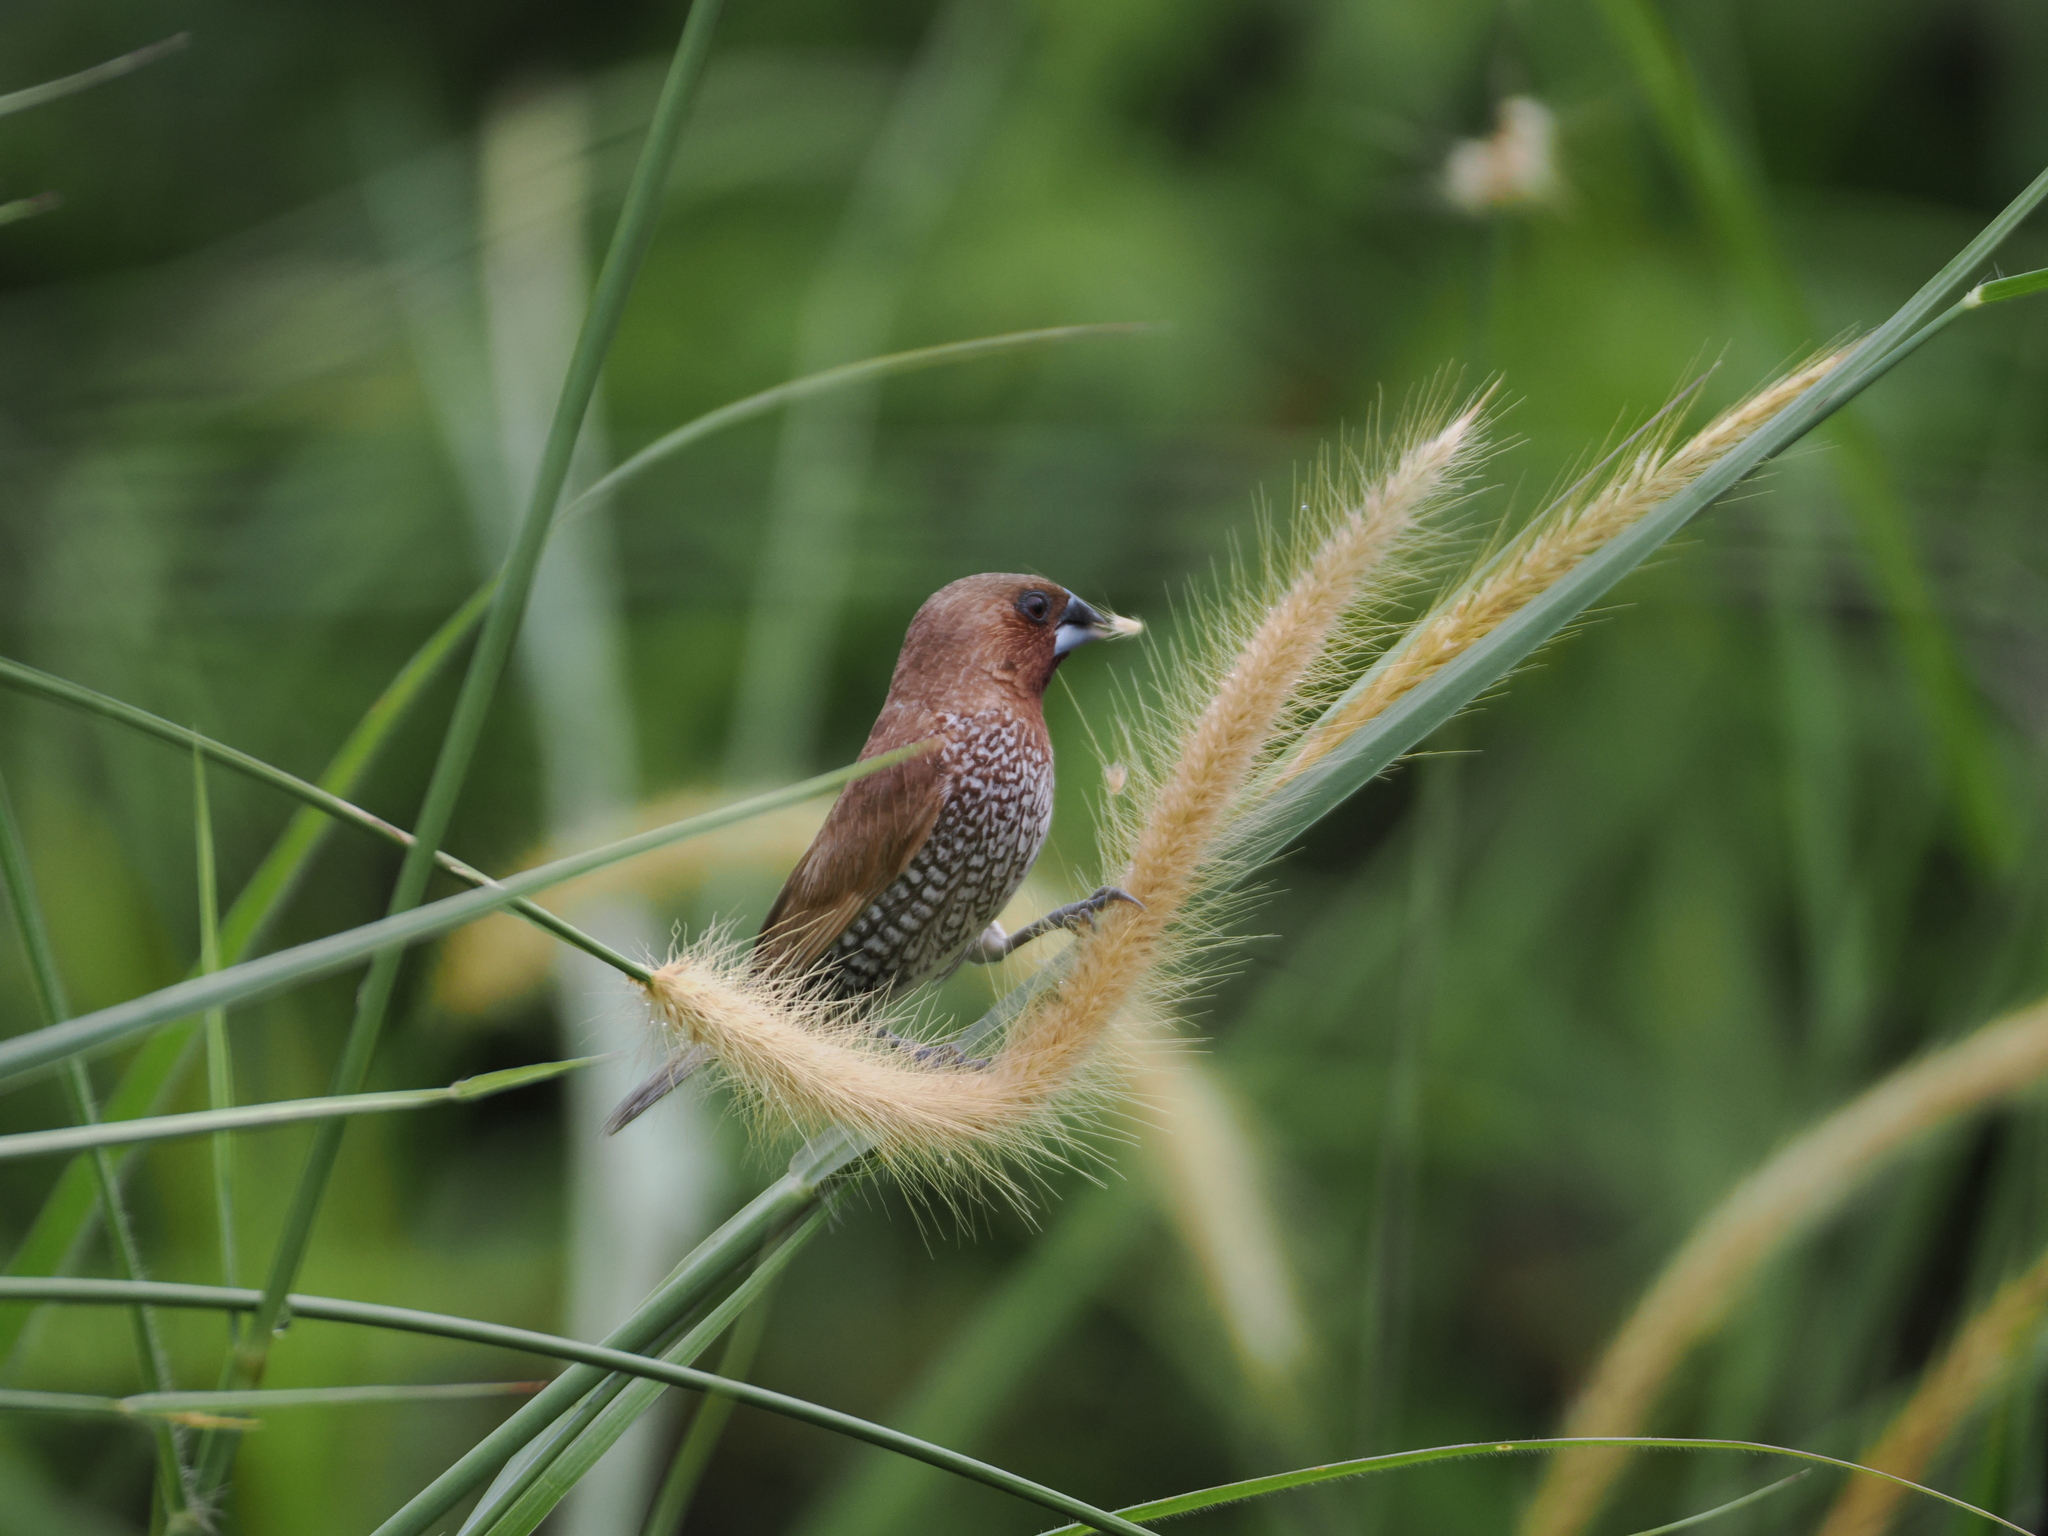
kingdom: Animalia
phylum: Chordata
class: Aves
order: Passeriformes
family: Estrildidae
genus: Lonchura
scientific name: Lonchura punctulata
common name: Scaly-breasted munia
